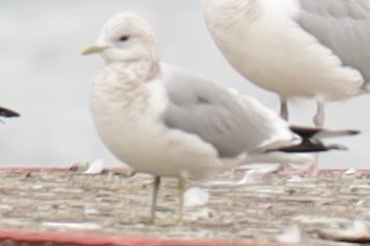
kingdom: Animalia
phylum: Chordata
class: Aves
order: Charadriiformes
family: Laridae
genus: Larus
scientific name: Larus brachyrhynchus
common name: Short-billed gull
